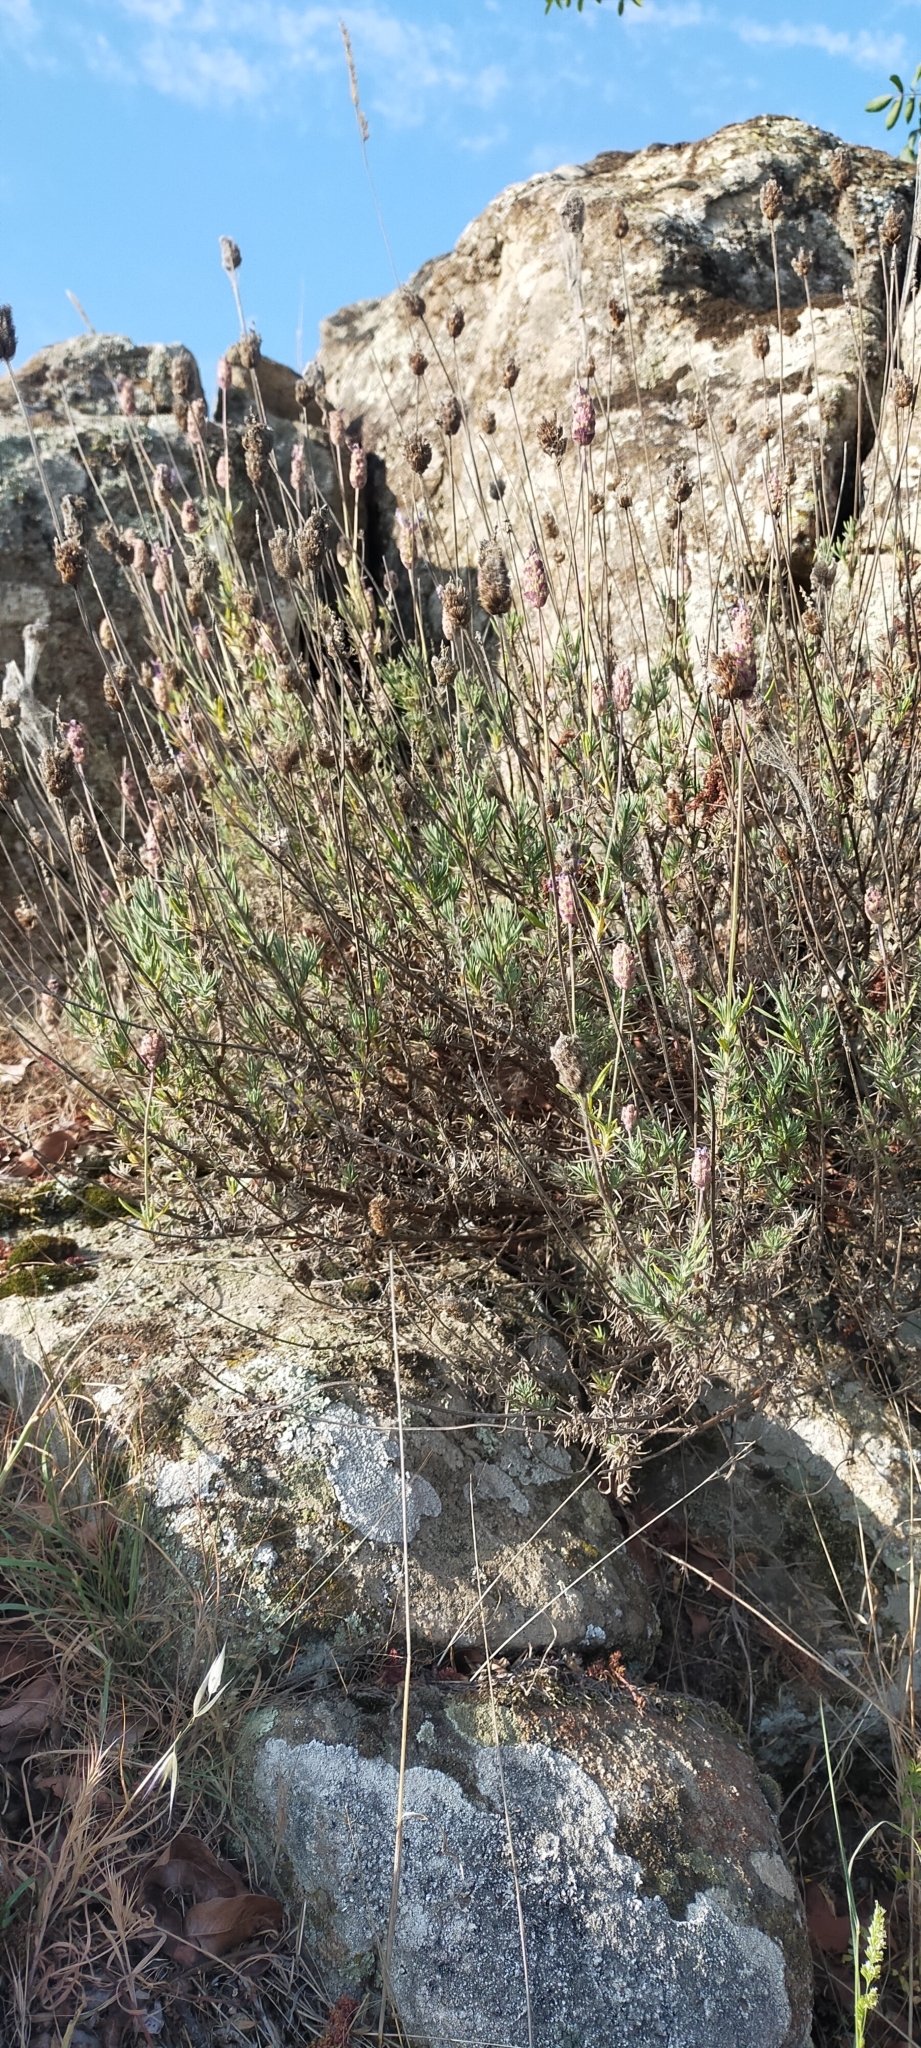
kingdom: Plantae
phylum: Tracheophyta
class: Magnoliopsida
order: Lamiales
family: Lamiaceae
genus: Lavandula
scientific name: Lavandula pedunculata
